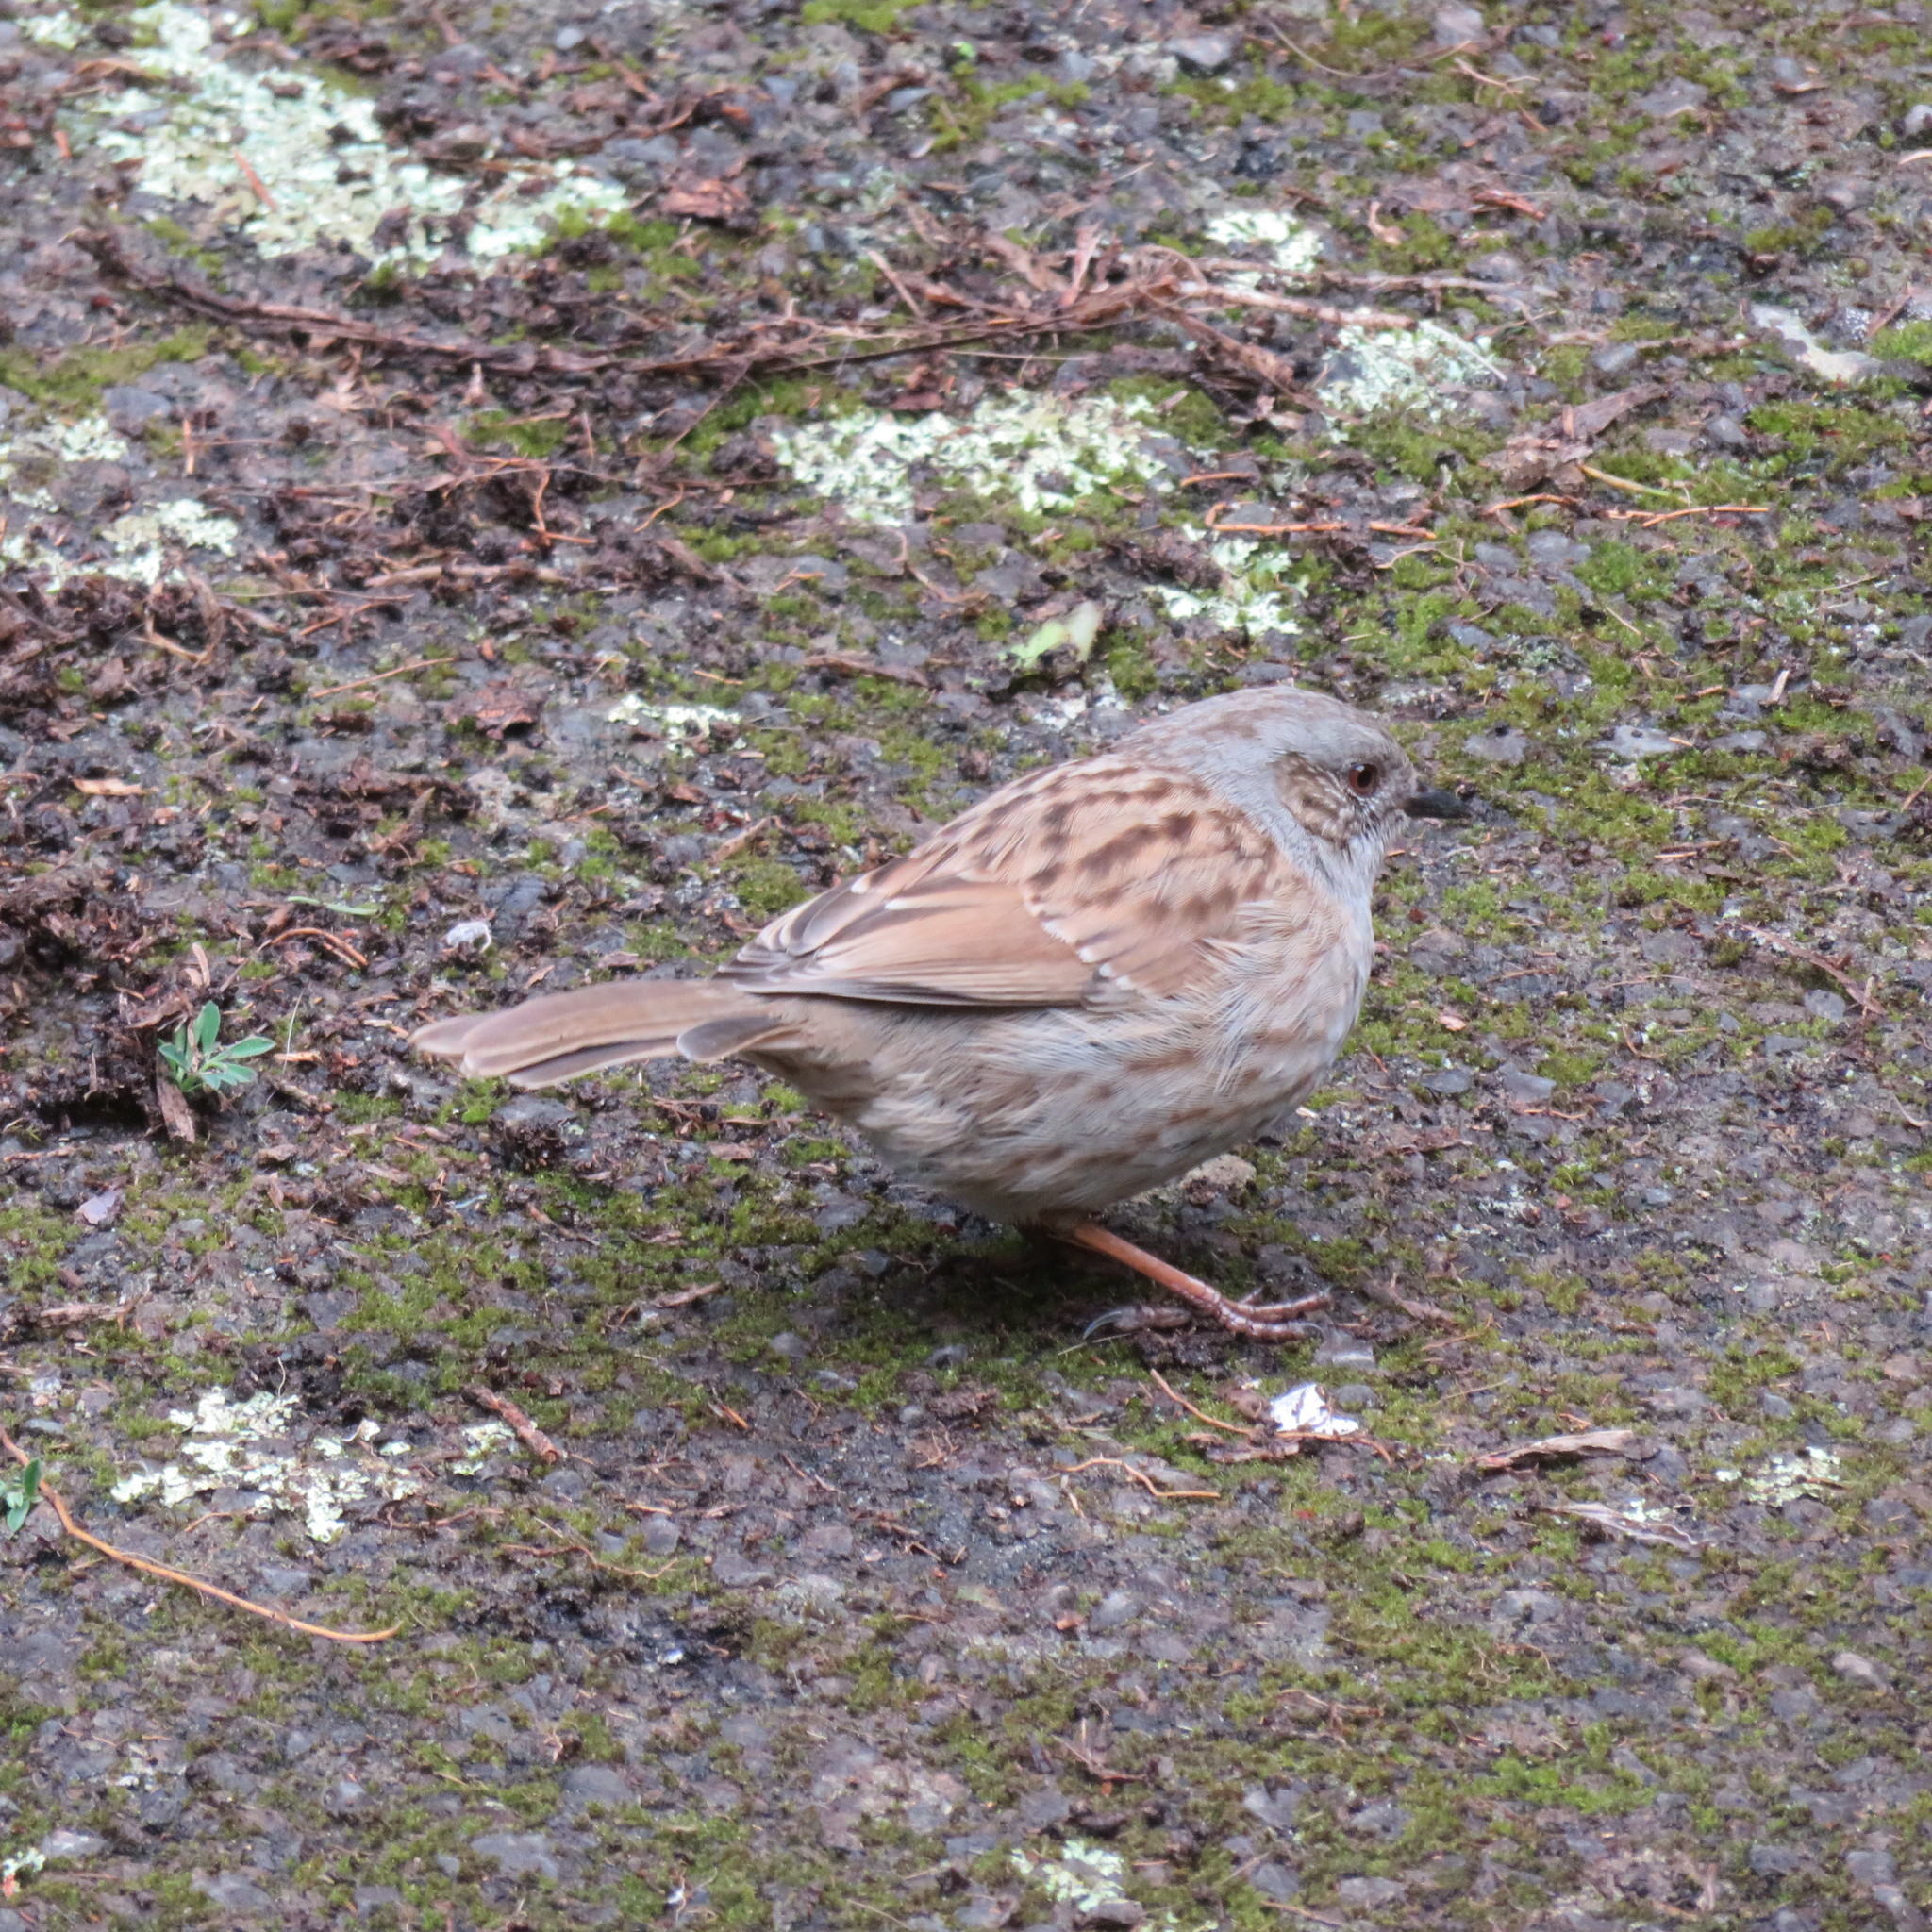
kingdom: Animalia
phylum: Chordata
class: Aves
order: Passeriformes
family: Prunellidae
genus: Prunella
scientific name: Prunella modularis
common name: Dunnock
